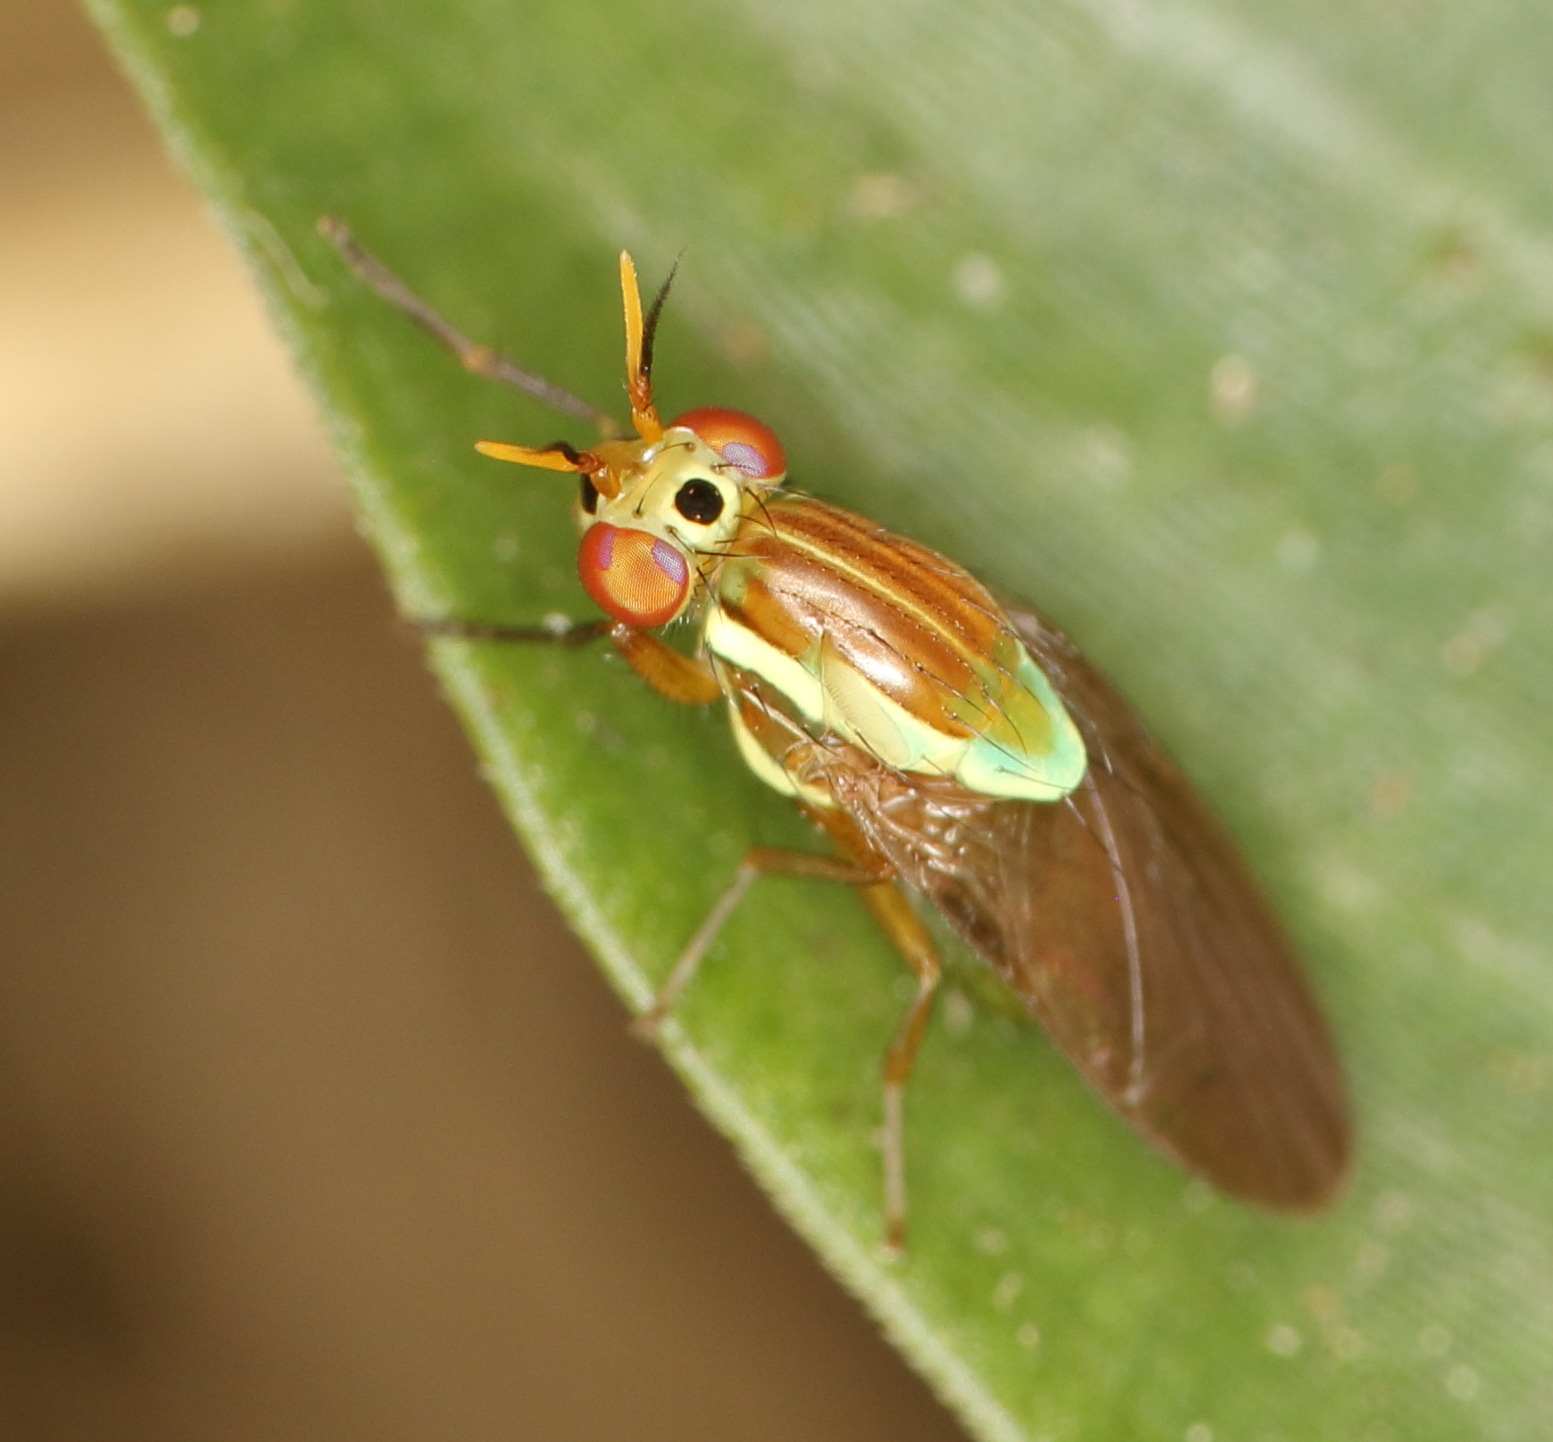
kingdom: Animalia
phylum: Arthropoda
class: Insecta
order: Diptera
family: Lauxaniidae
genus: Pachycerina
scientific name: Pachycerina
